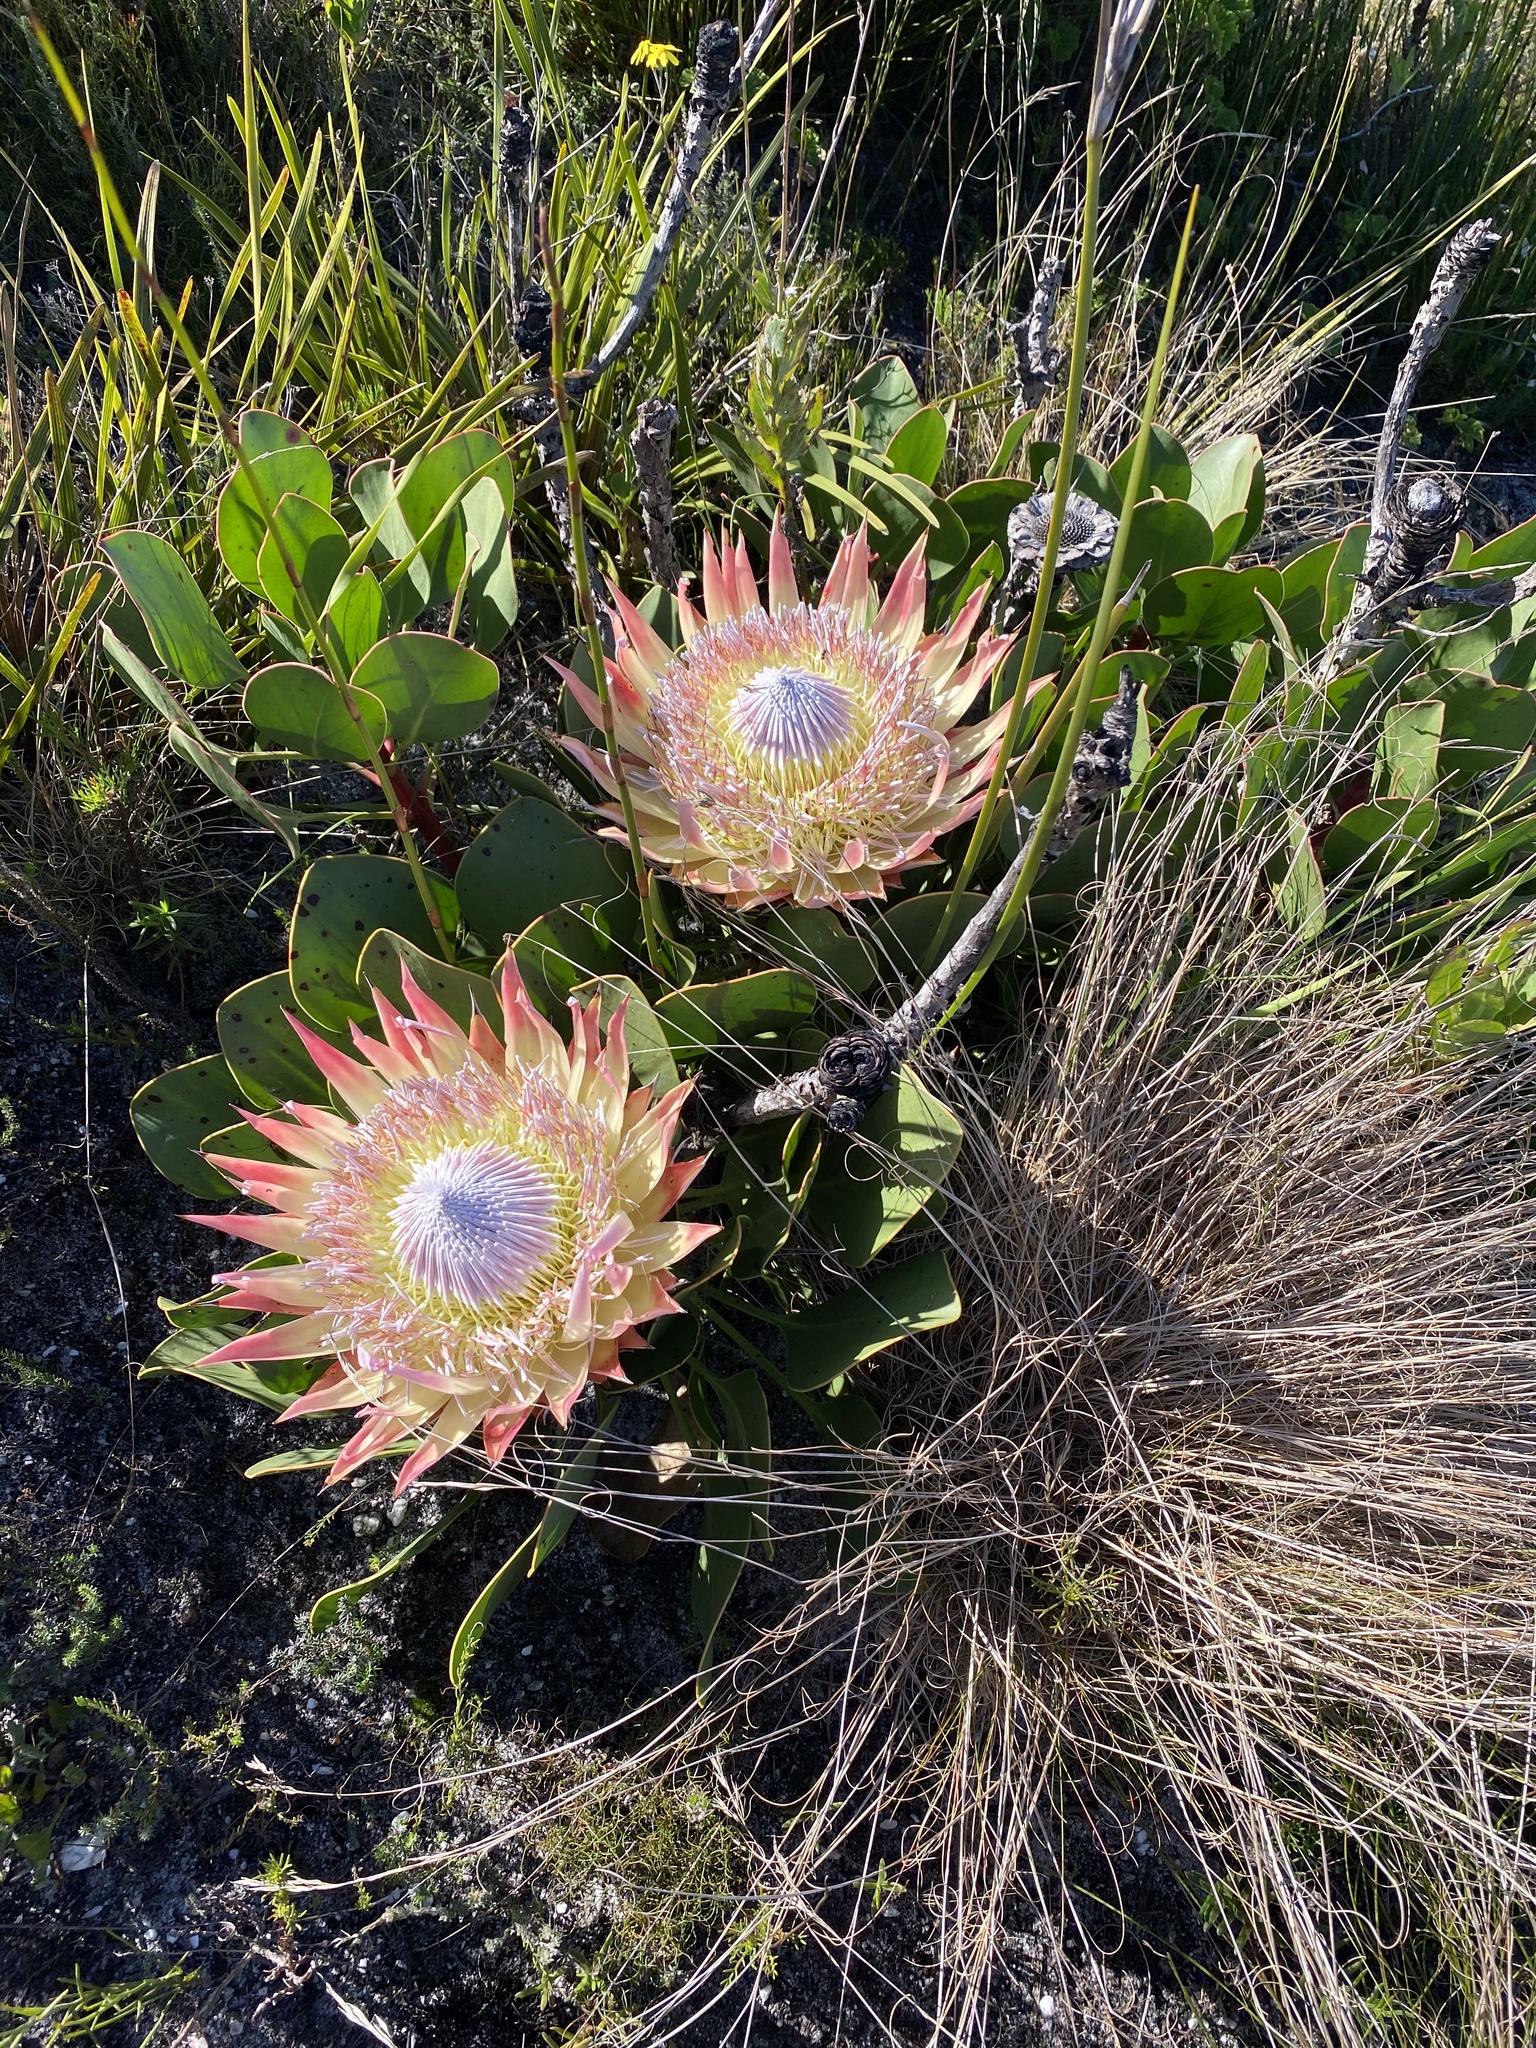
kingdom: Plantae
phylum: Tracheophyta
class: Magnoliopsida
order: Proteales
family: Proteaceae
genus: Protea
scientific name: Protea cynaroides
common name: King protea
